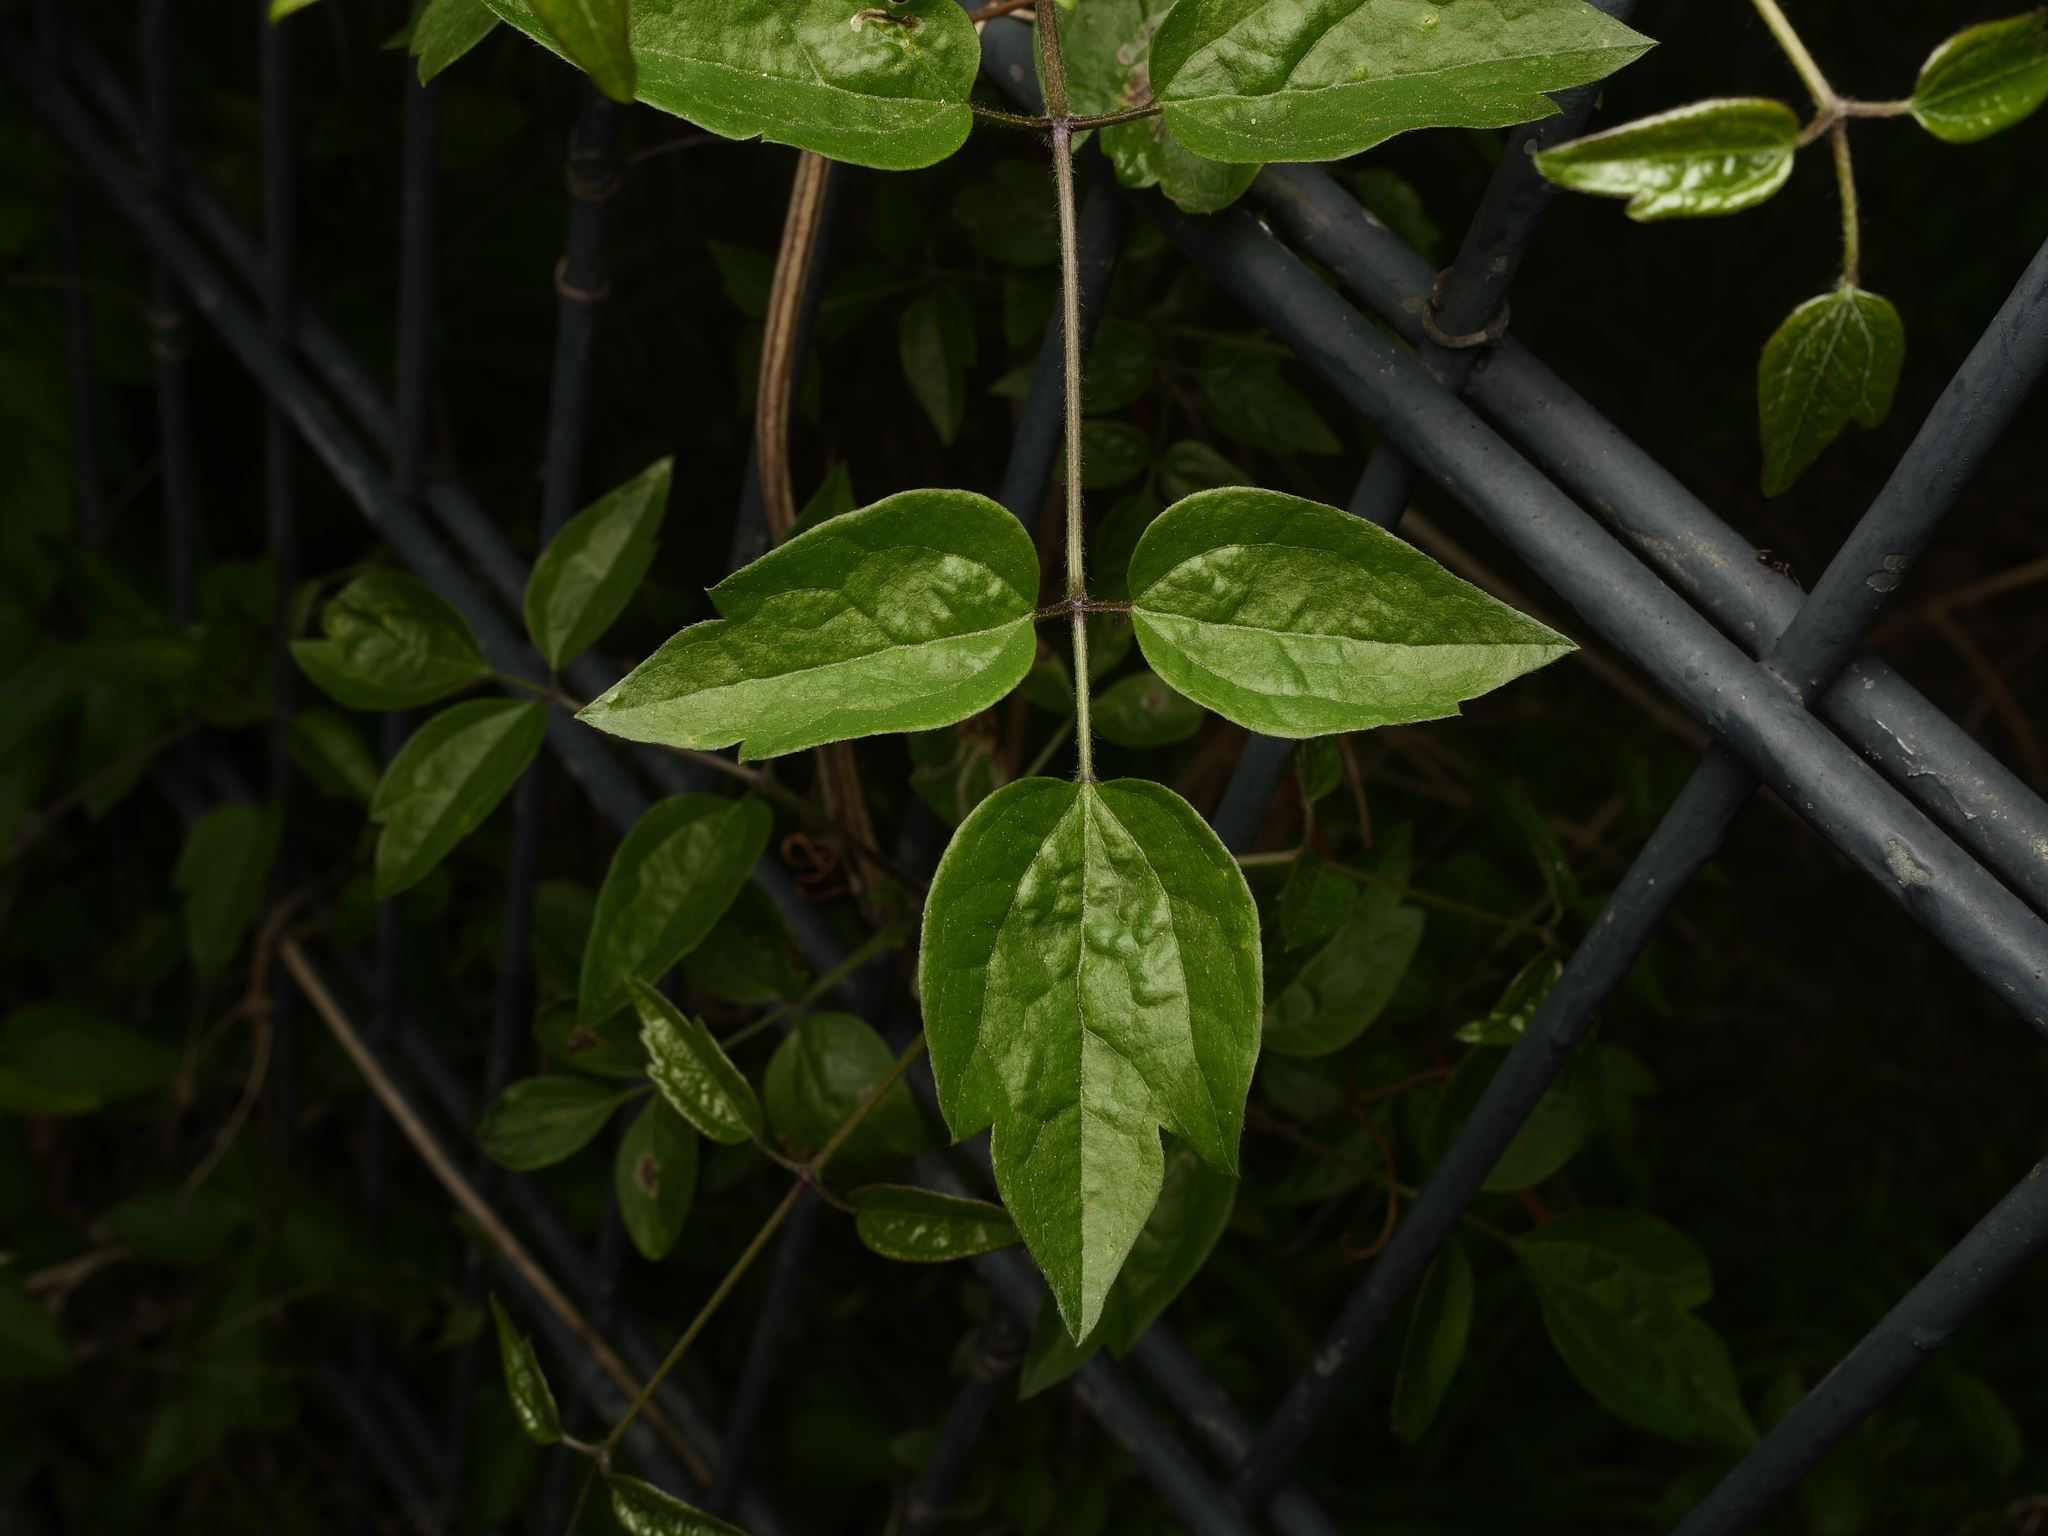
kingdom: Plantae
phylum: Tracheophyta
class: Magnoliopsida
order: Ranunculales
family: Ranunculaceae
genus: Clematis
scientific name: Clematis vitalba
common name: Evergreen clematis
